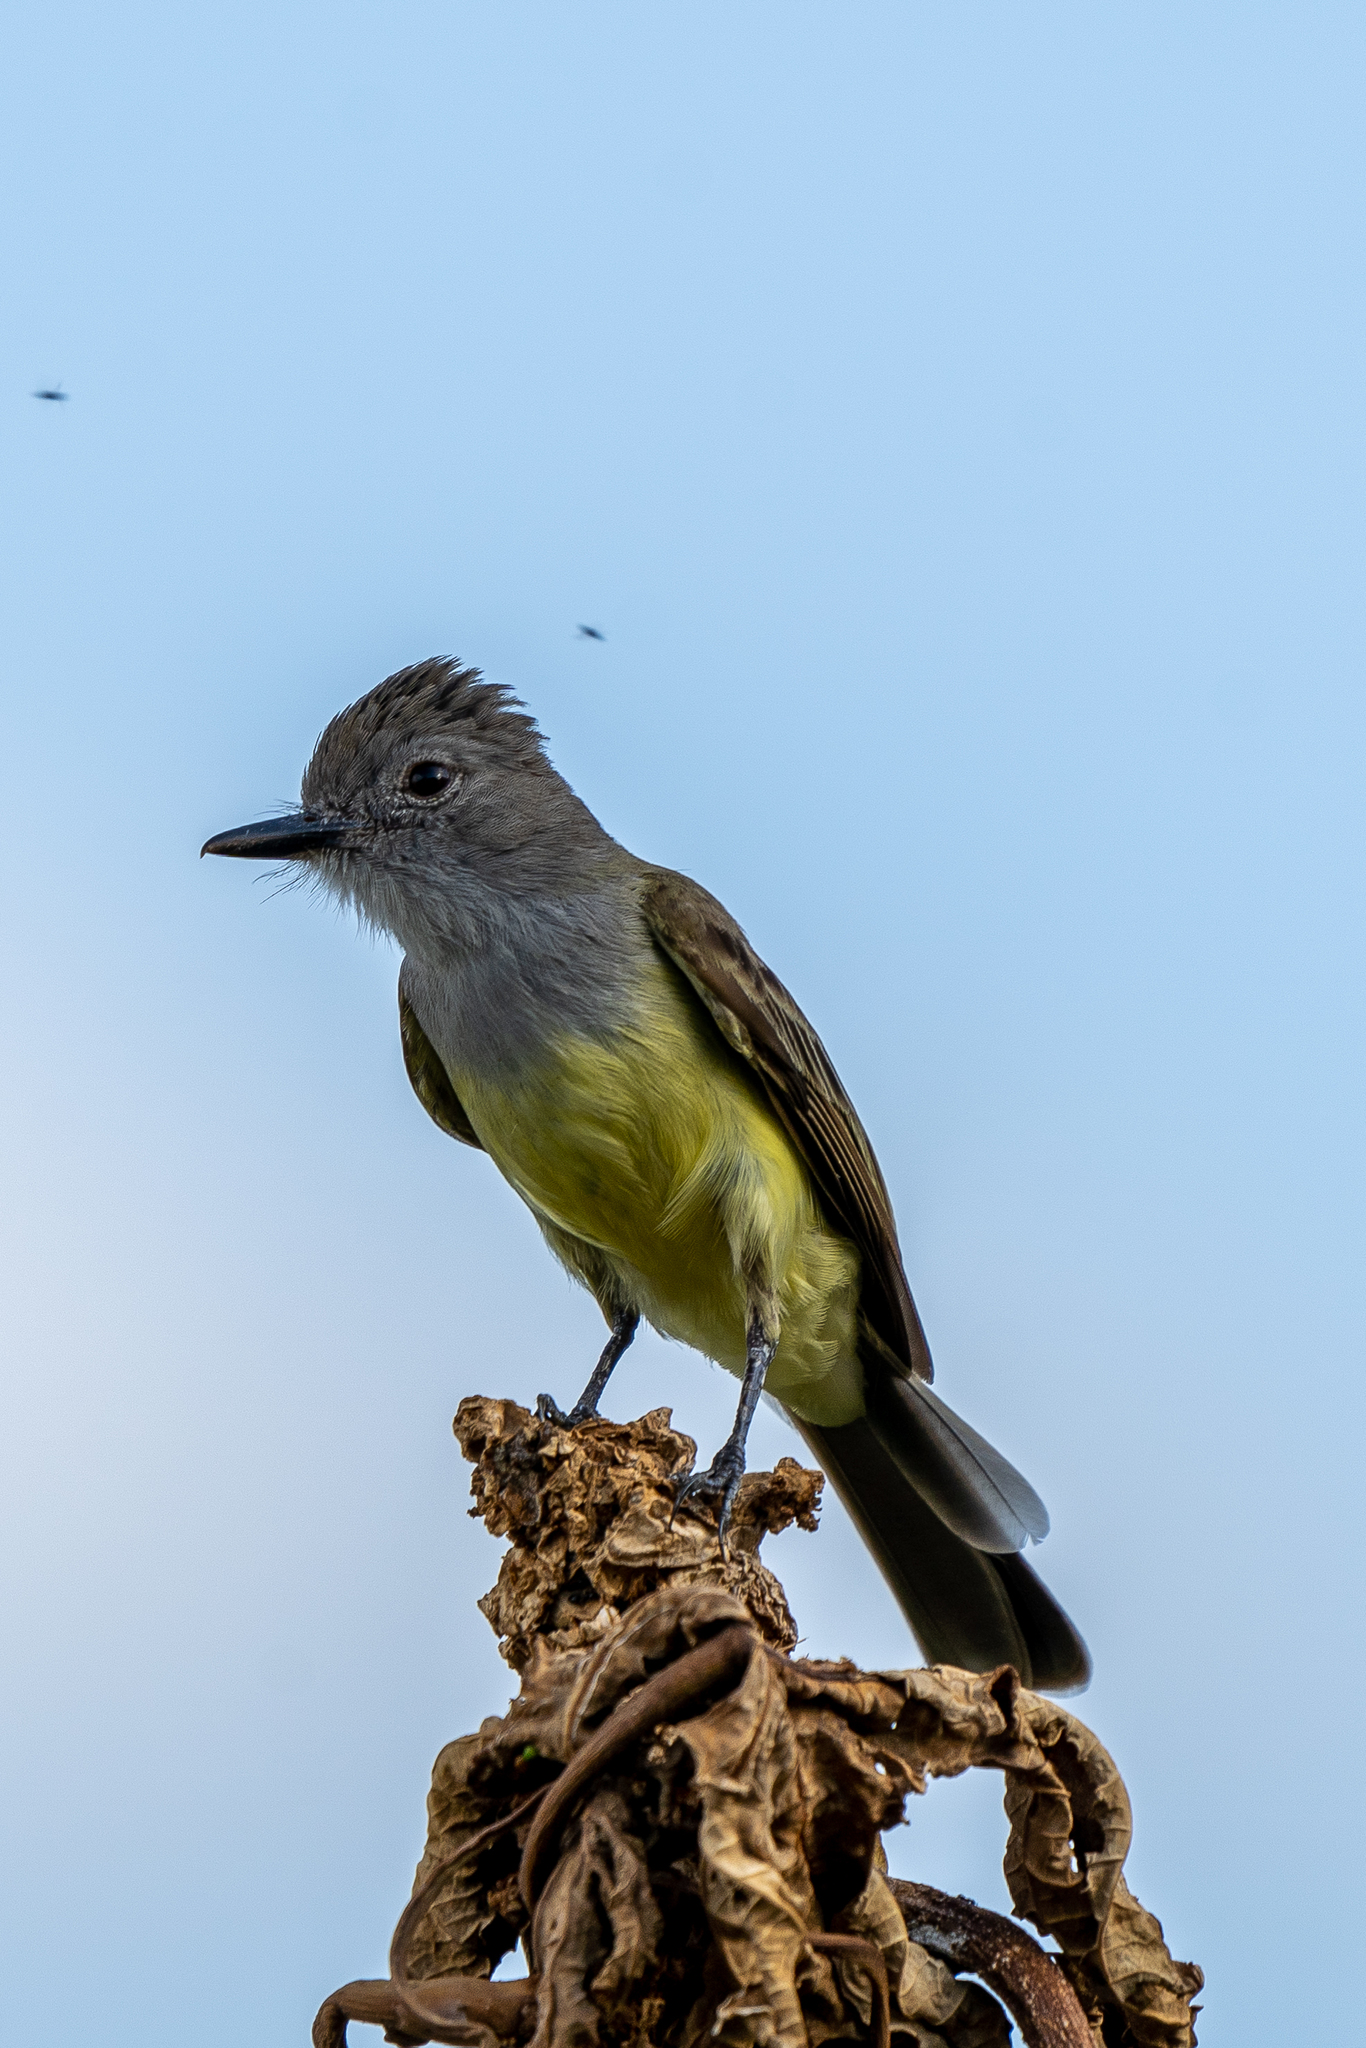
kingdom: Animalia
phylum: Chordata
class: Aves
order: Passeriformes
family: Tyrannidae
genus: Myiarchus
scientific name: Myiarchus panamensis
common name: Panama flycatcher
